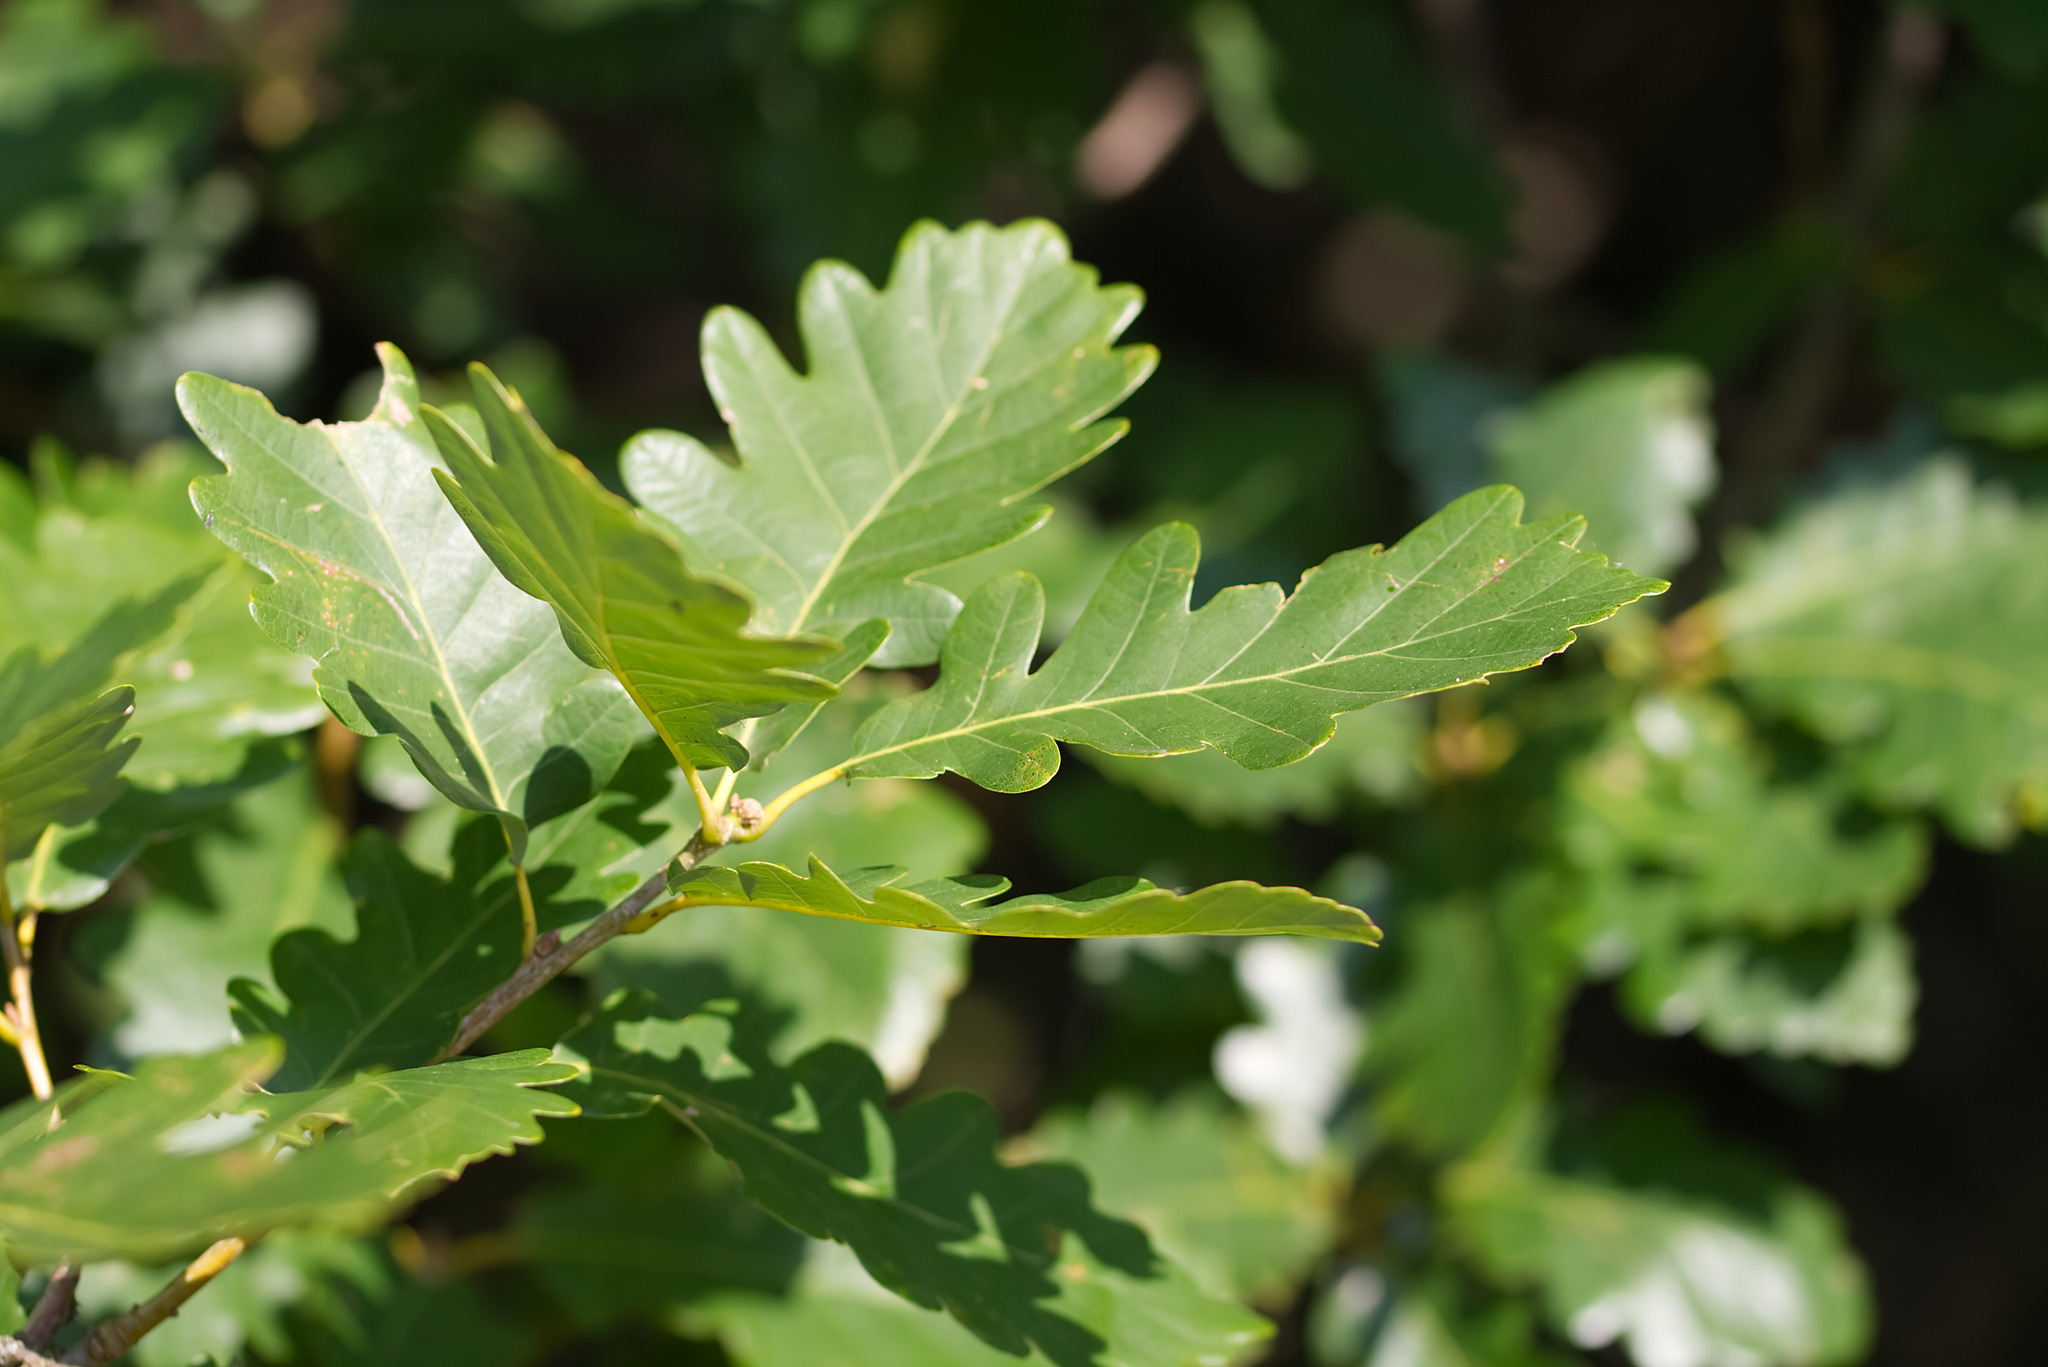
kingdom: Plantae
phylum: Tracheophyta
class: Magnoliopsida
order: Fagales
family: Fagaceae
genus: Quercus
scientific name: Quercus petraea
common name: Sessile oak
